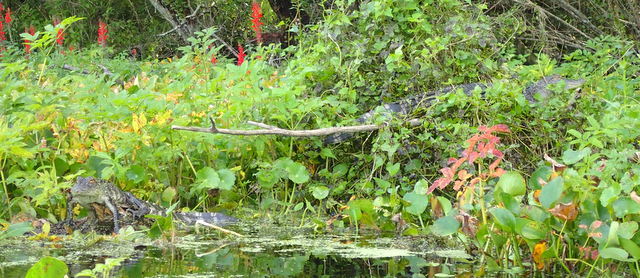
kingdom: Animalia
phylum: Chordata
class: Crocodylia
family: Alligatoridae
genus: Alligator
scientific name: Alligator mississippiensis
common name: American alligator
